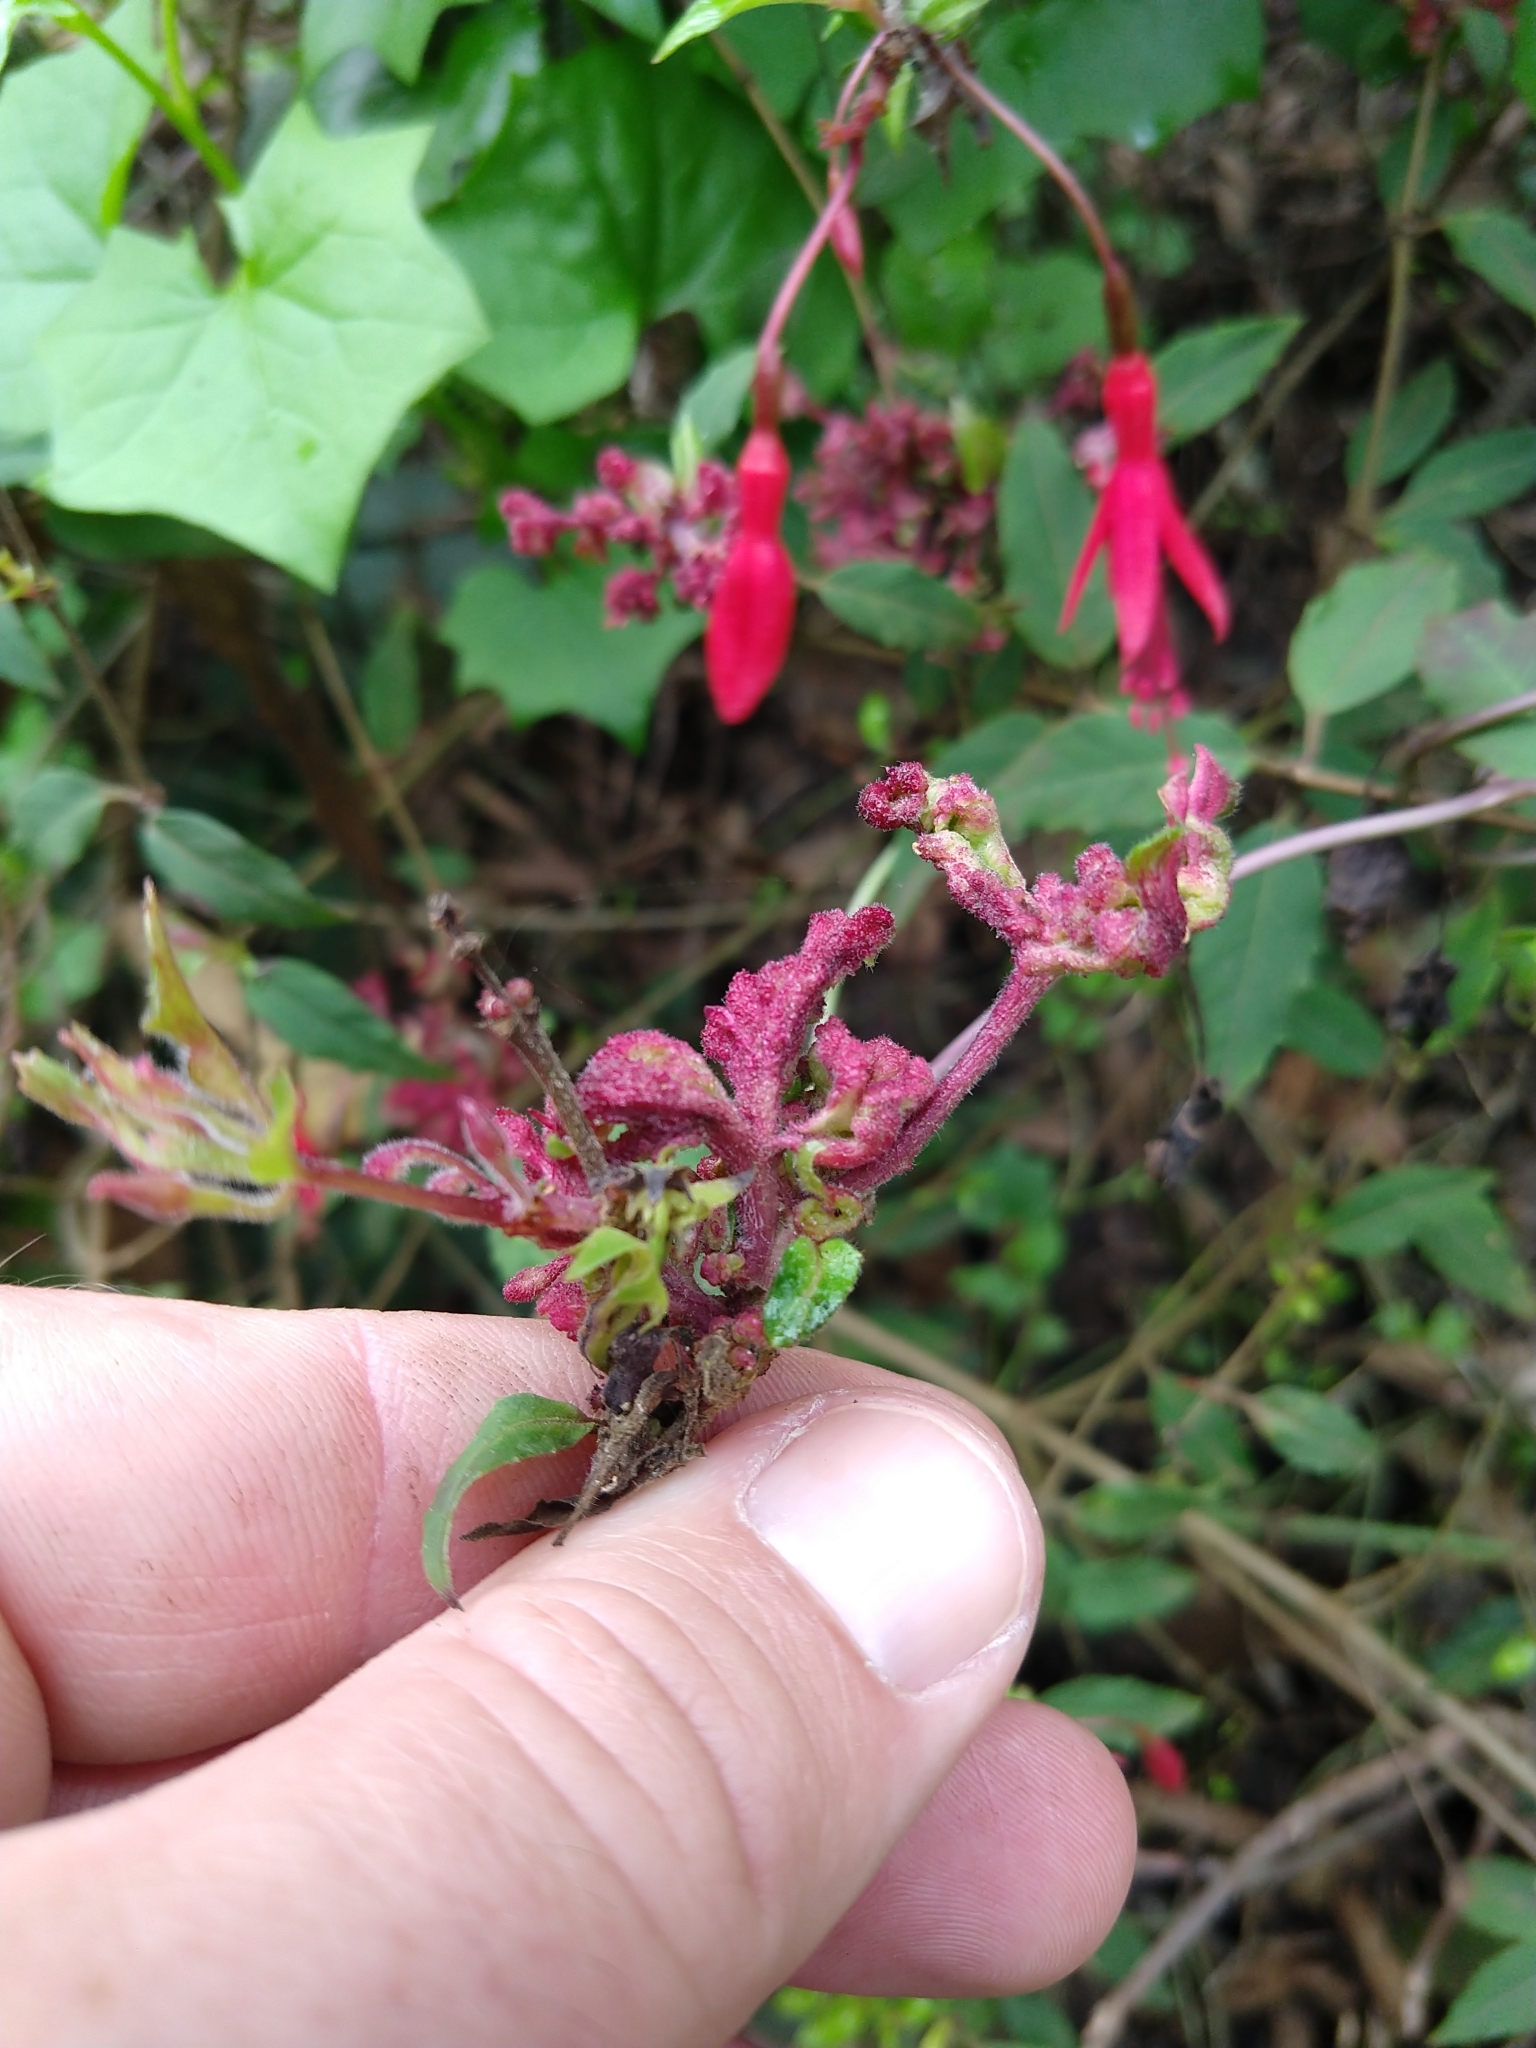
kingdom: Animalia
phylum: Arthropoda
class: Arachnida
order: Trombidiformes
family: Eriophyidae
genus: Aculops
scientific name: Aculops fuchsiae
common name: Fuchsia gall mite
